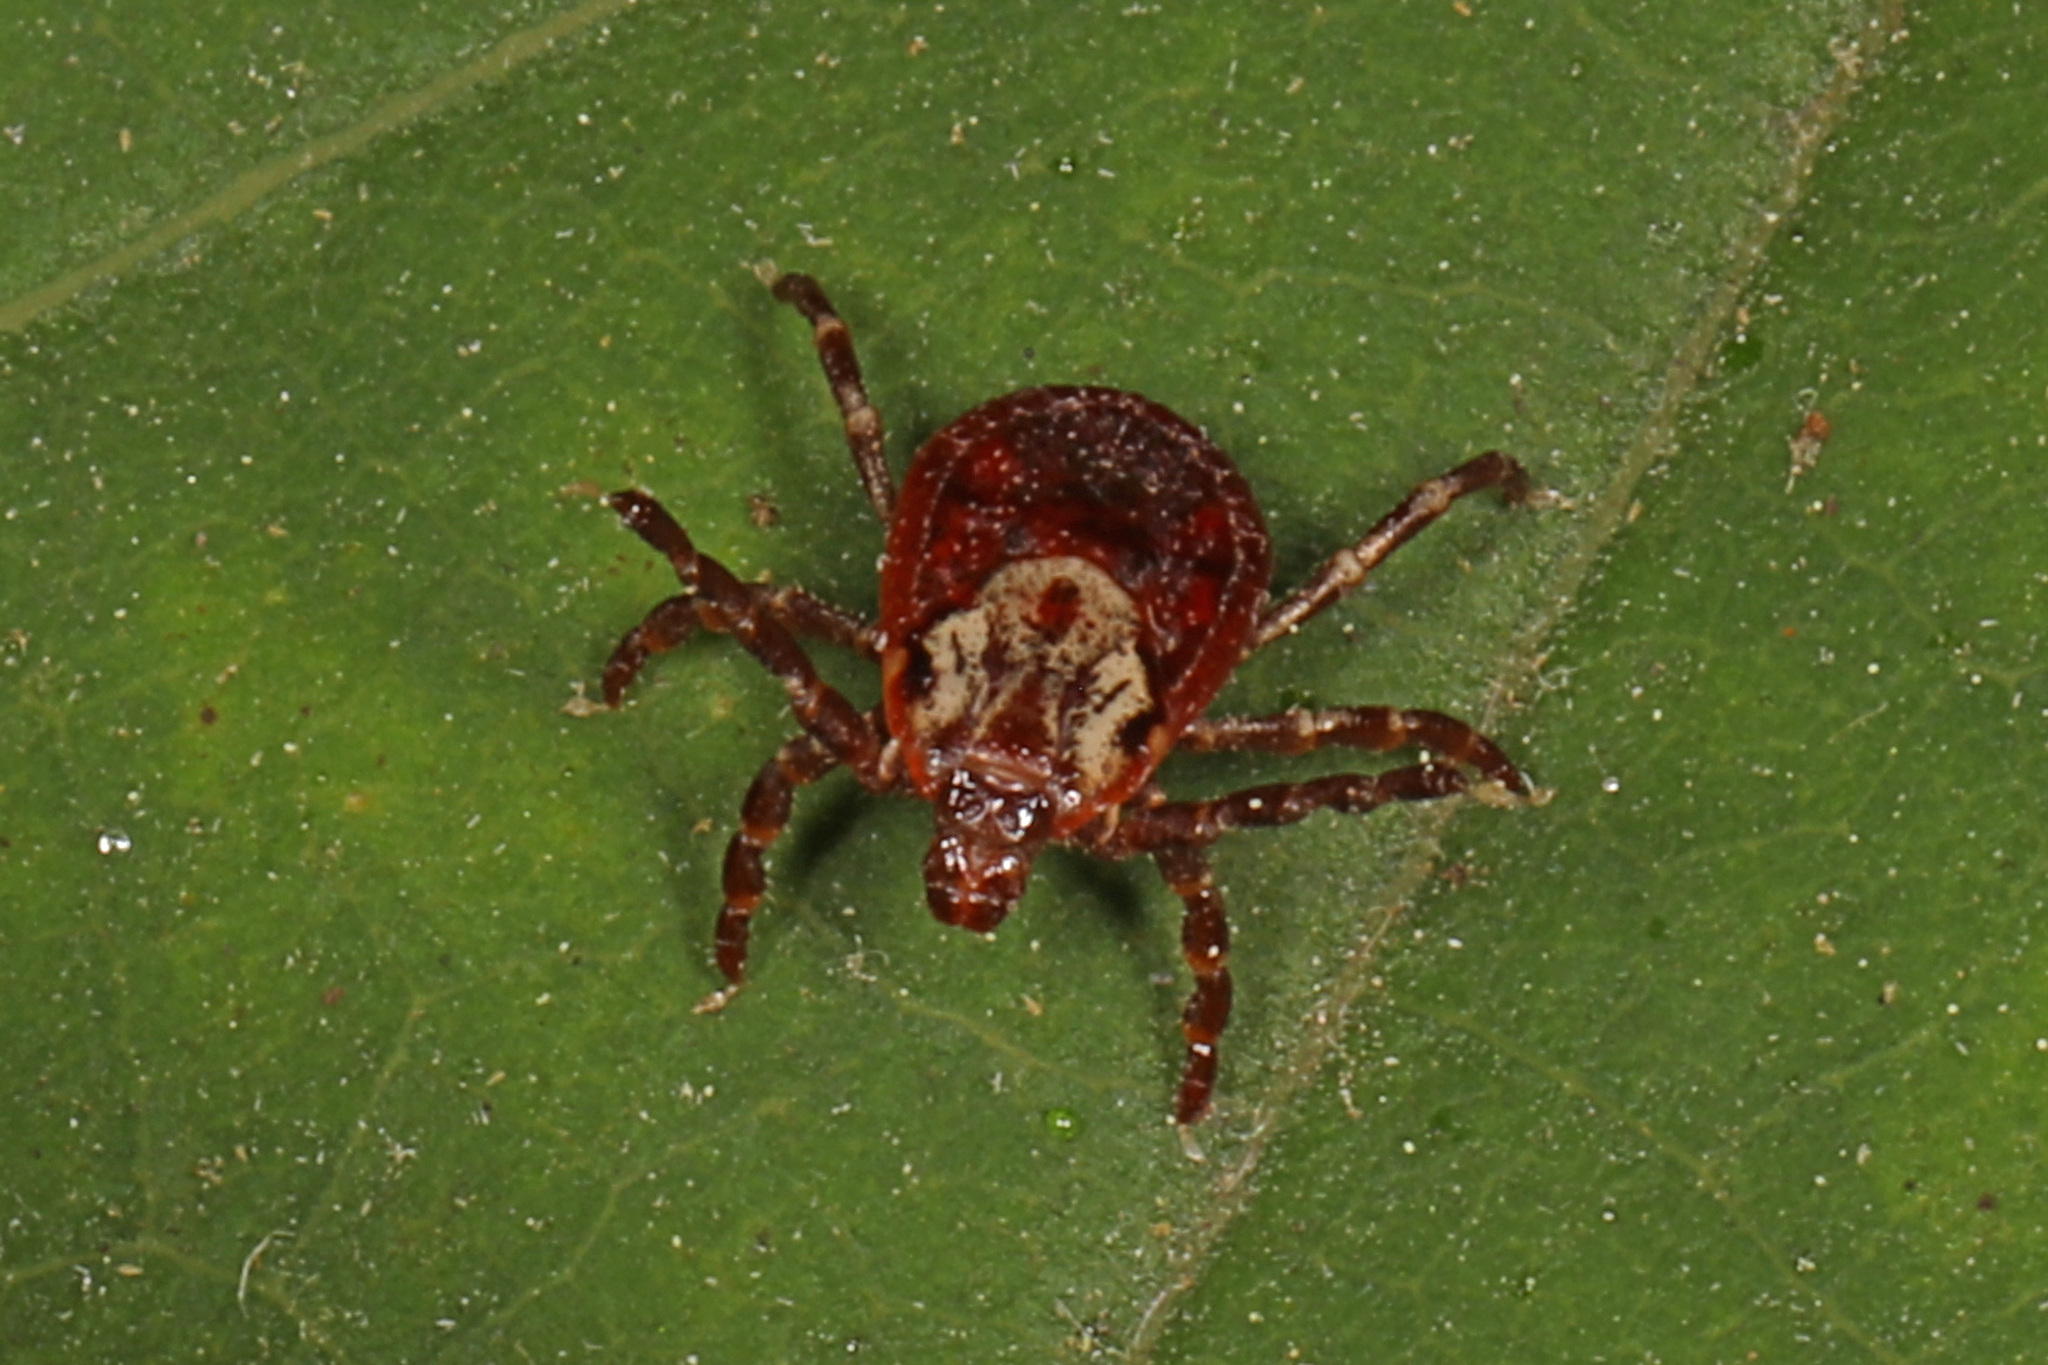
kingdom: Animalia
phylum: Arthropoda
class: Arachnida
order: Ixodida
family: Ixodidae
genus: Dermacentor
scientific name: Dermacentor variabilis
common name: American dog tick
